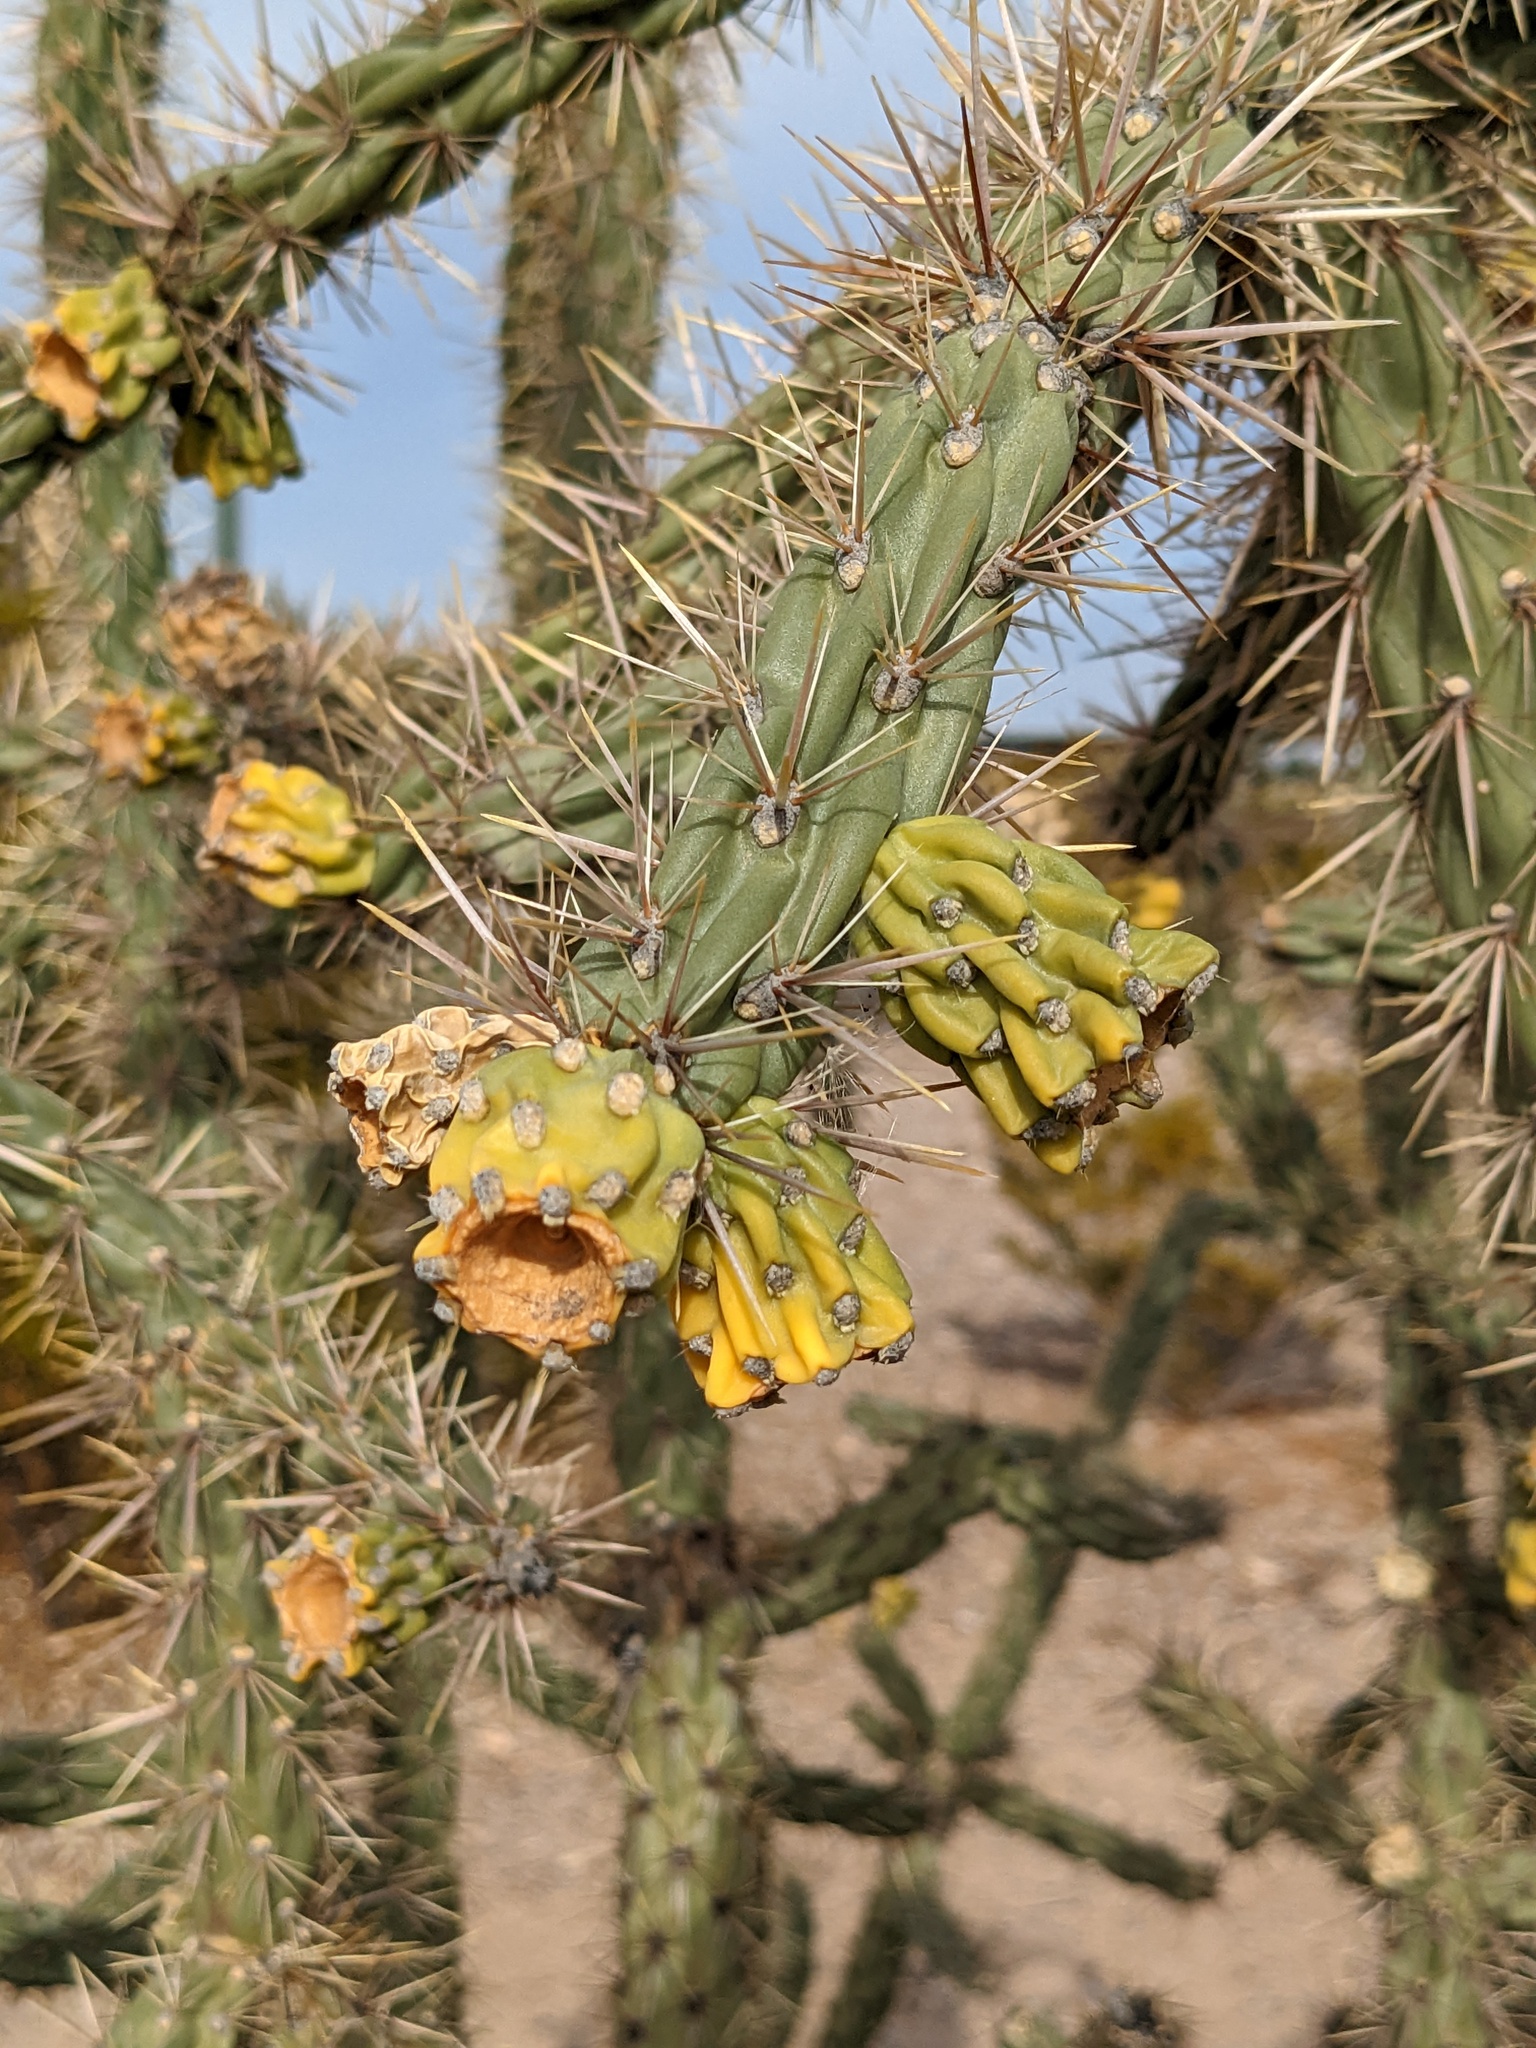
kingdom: Plantae
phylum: Tracheophyta
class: Magnoliopsida
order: Caryophyllales
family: Cactaceae
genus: Cylindropuntia
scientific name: Cylindropuntia imbricata
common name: Candelabrum cactus
